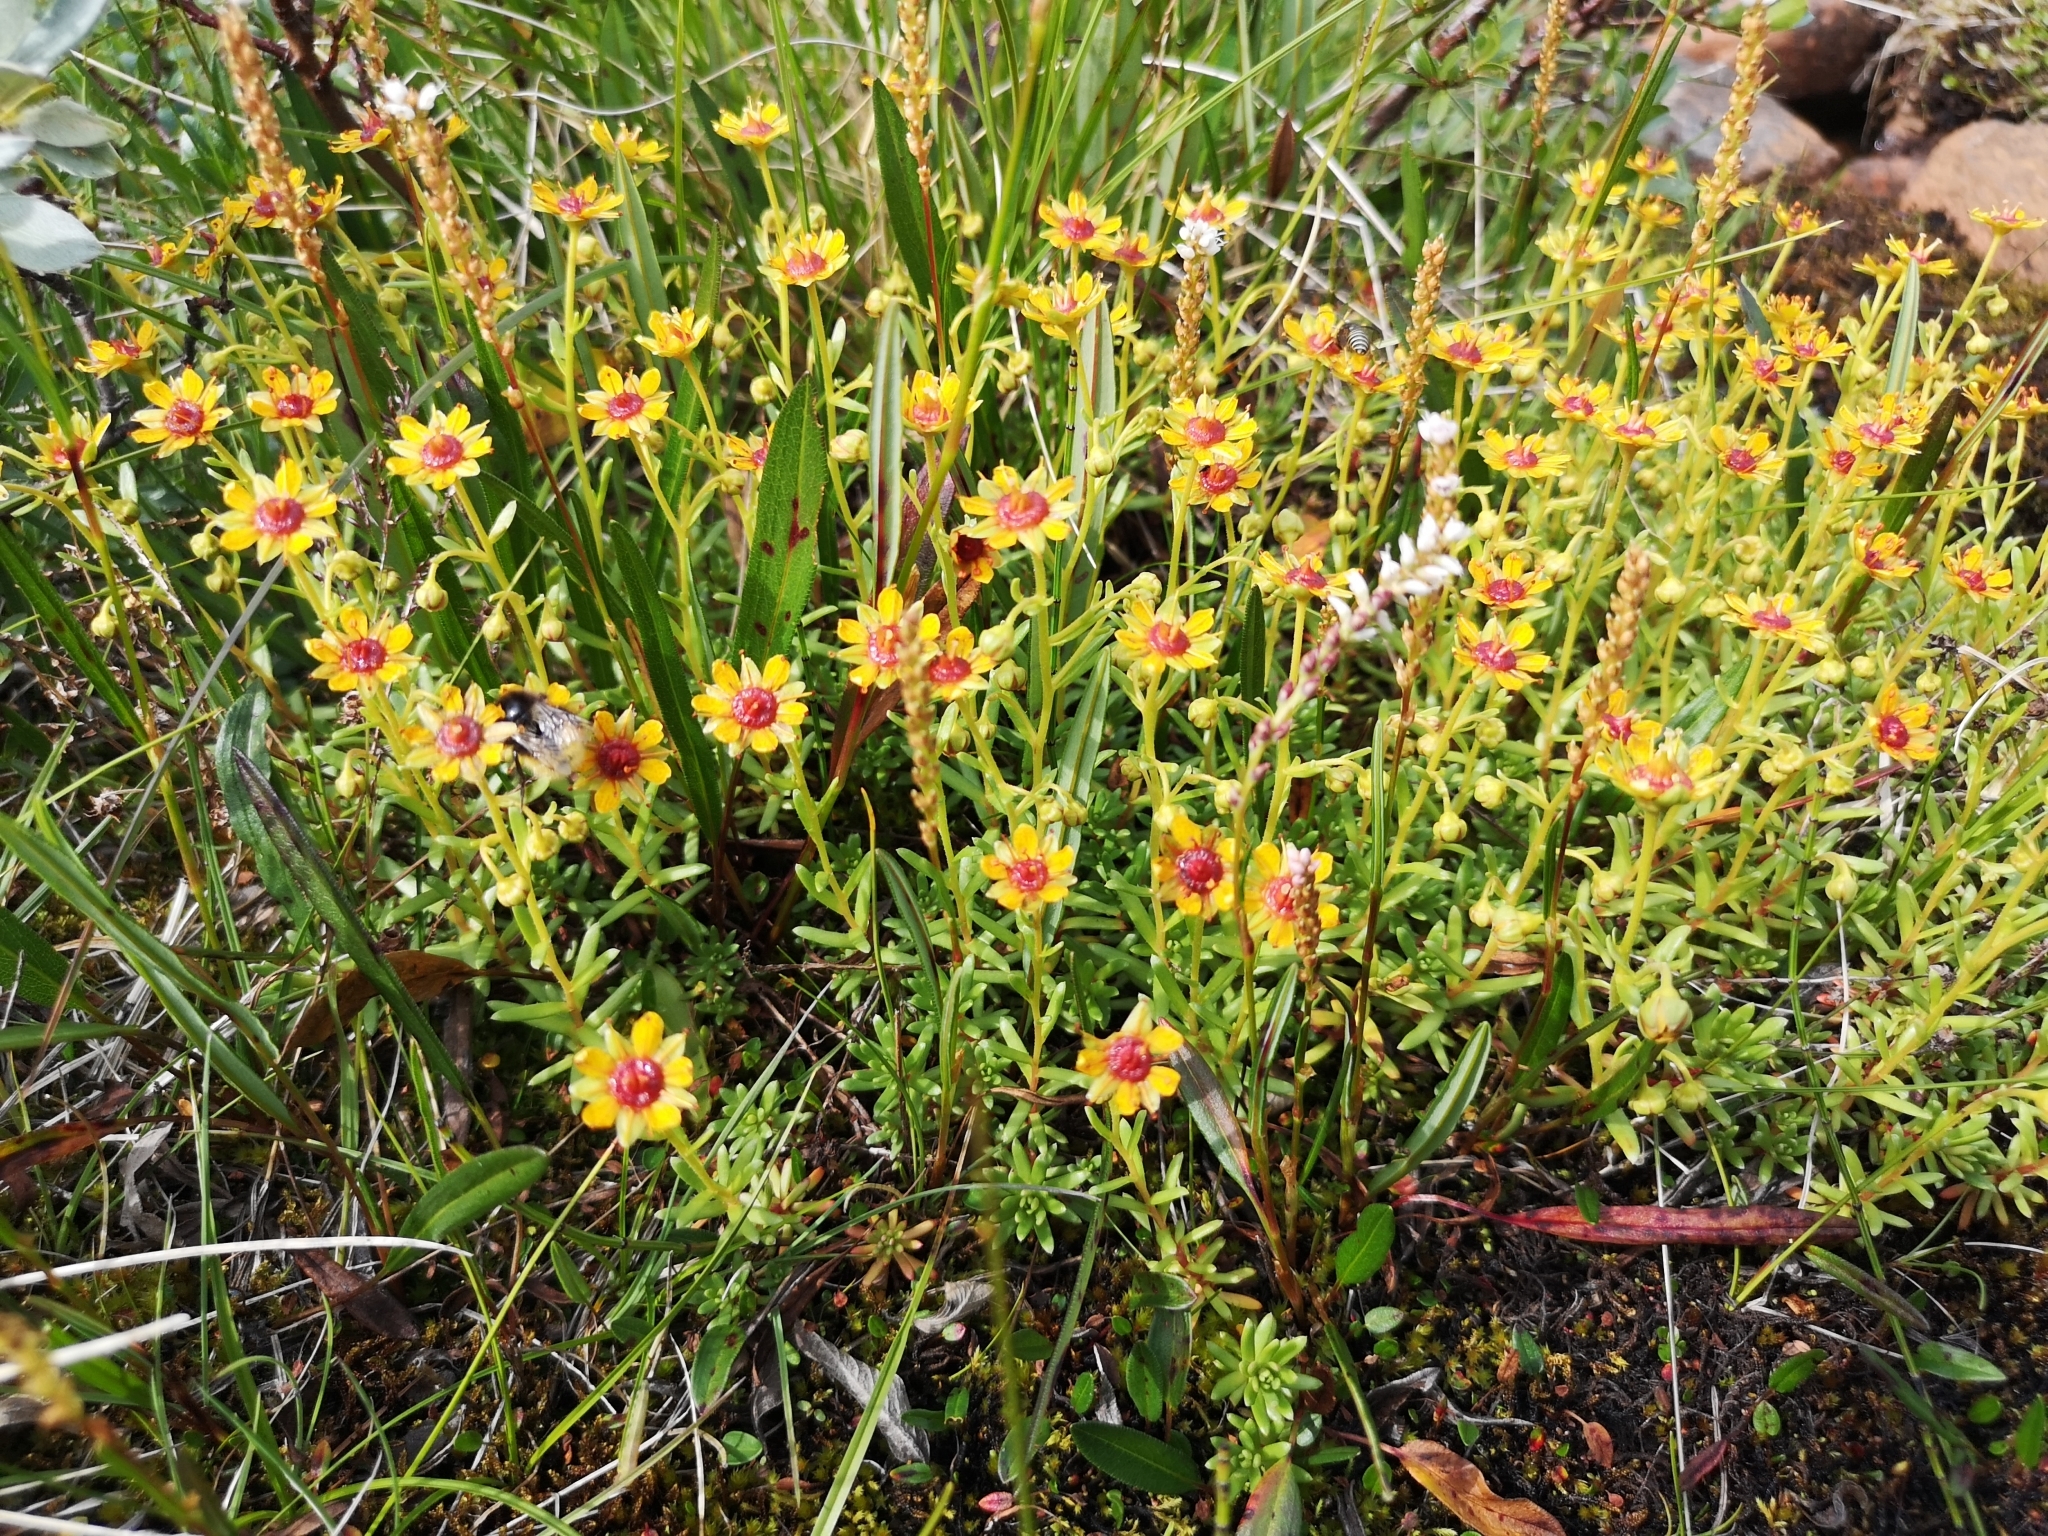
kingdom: Plantae
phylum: Tracheophyta
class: Magnoliopsida
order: Saxifragales
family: Saxifragaceae
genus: Saxifraga
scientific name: Saxifraga aizoides
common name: Yellow mountain saxifrage
